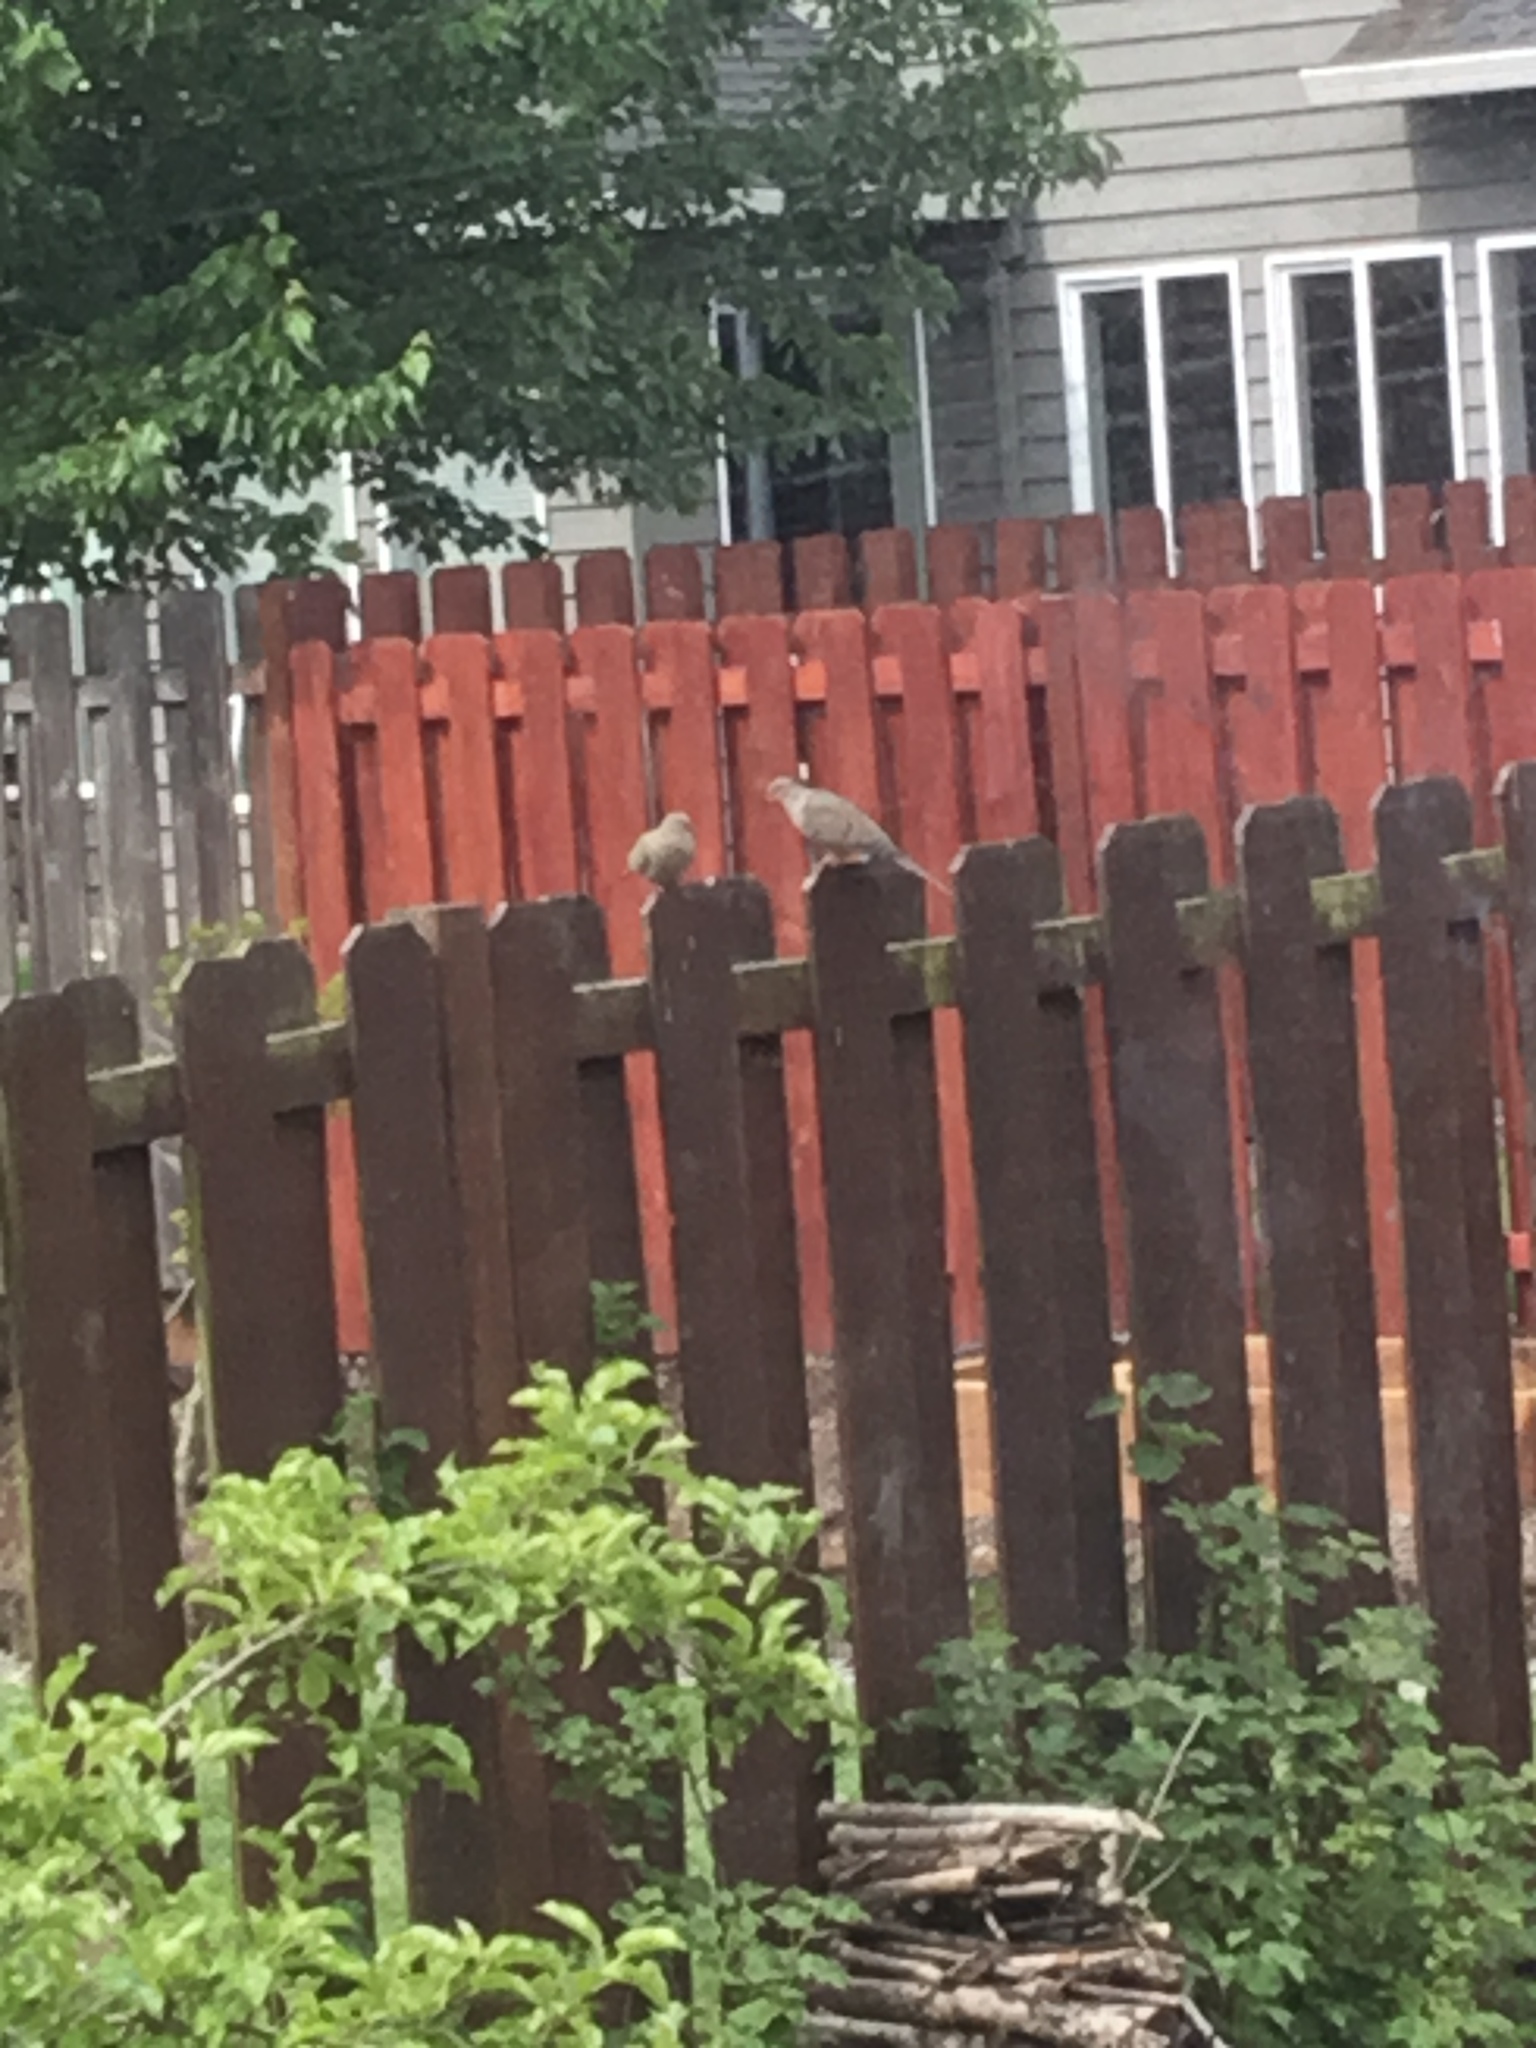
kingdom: Animalia
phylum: Chordata
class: Aves
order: Columbiformes
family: Columbidae
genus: Zenaida
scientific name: Zenaida macroura
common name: Mourning dove
